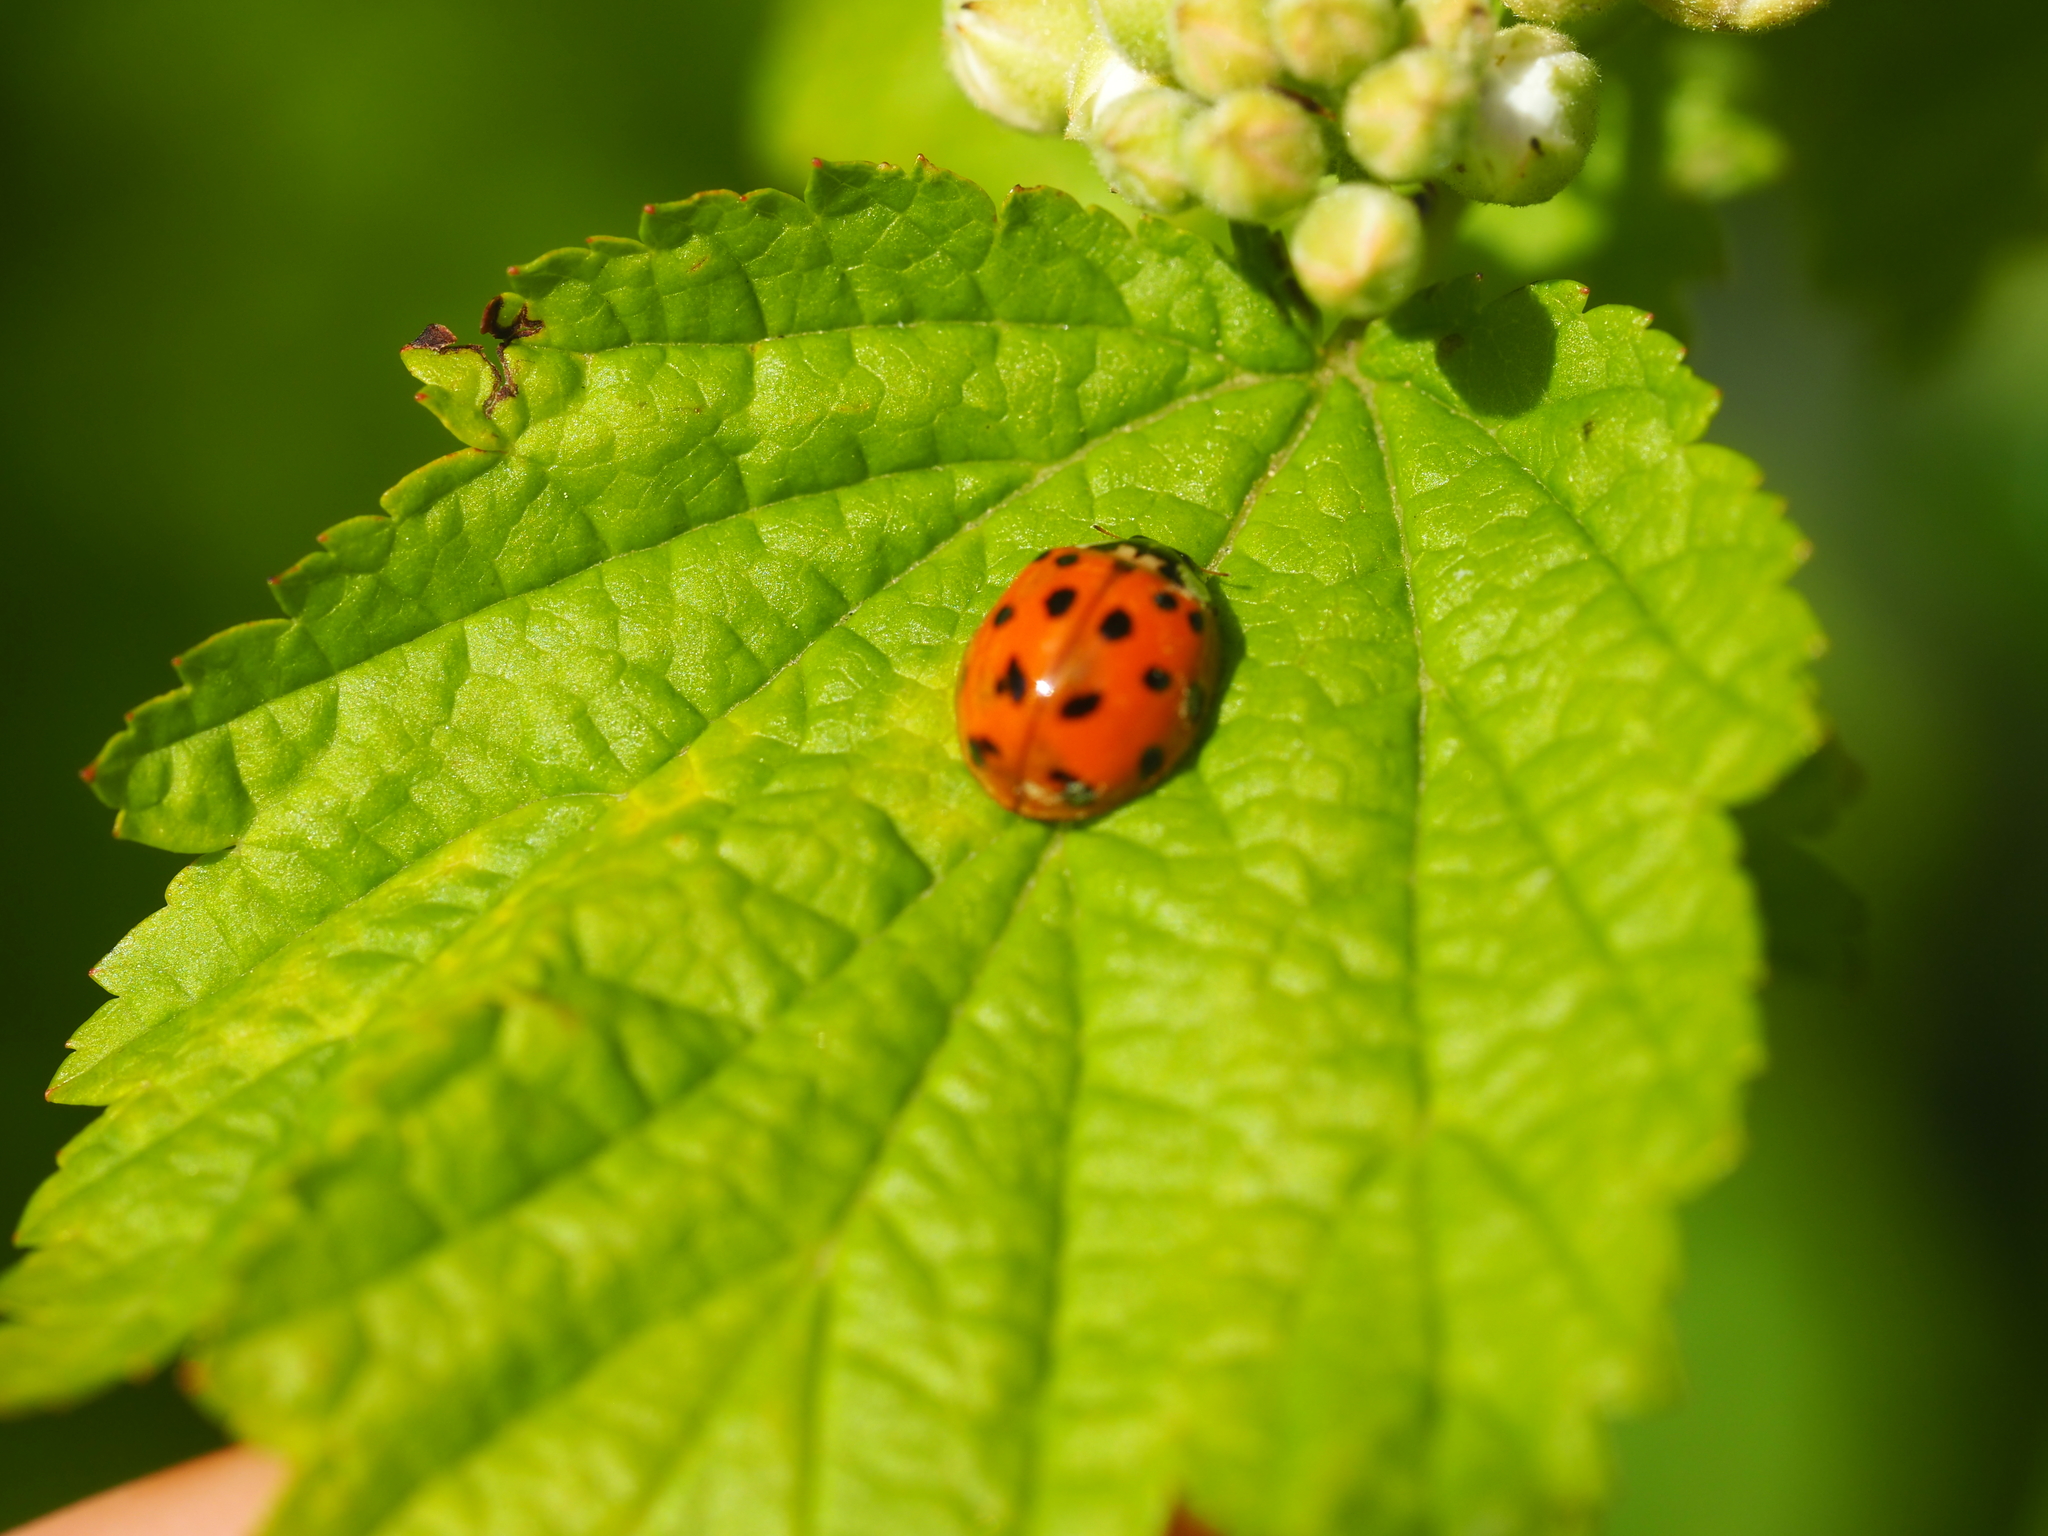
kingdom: Animalia
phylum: Arthropoda
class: Insecta
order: Coleoptera
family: Coccinellidae
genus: Harmonia
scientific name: Harmonia axyridis
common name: Harlequin ladybird
